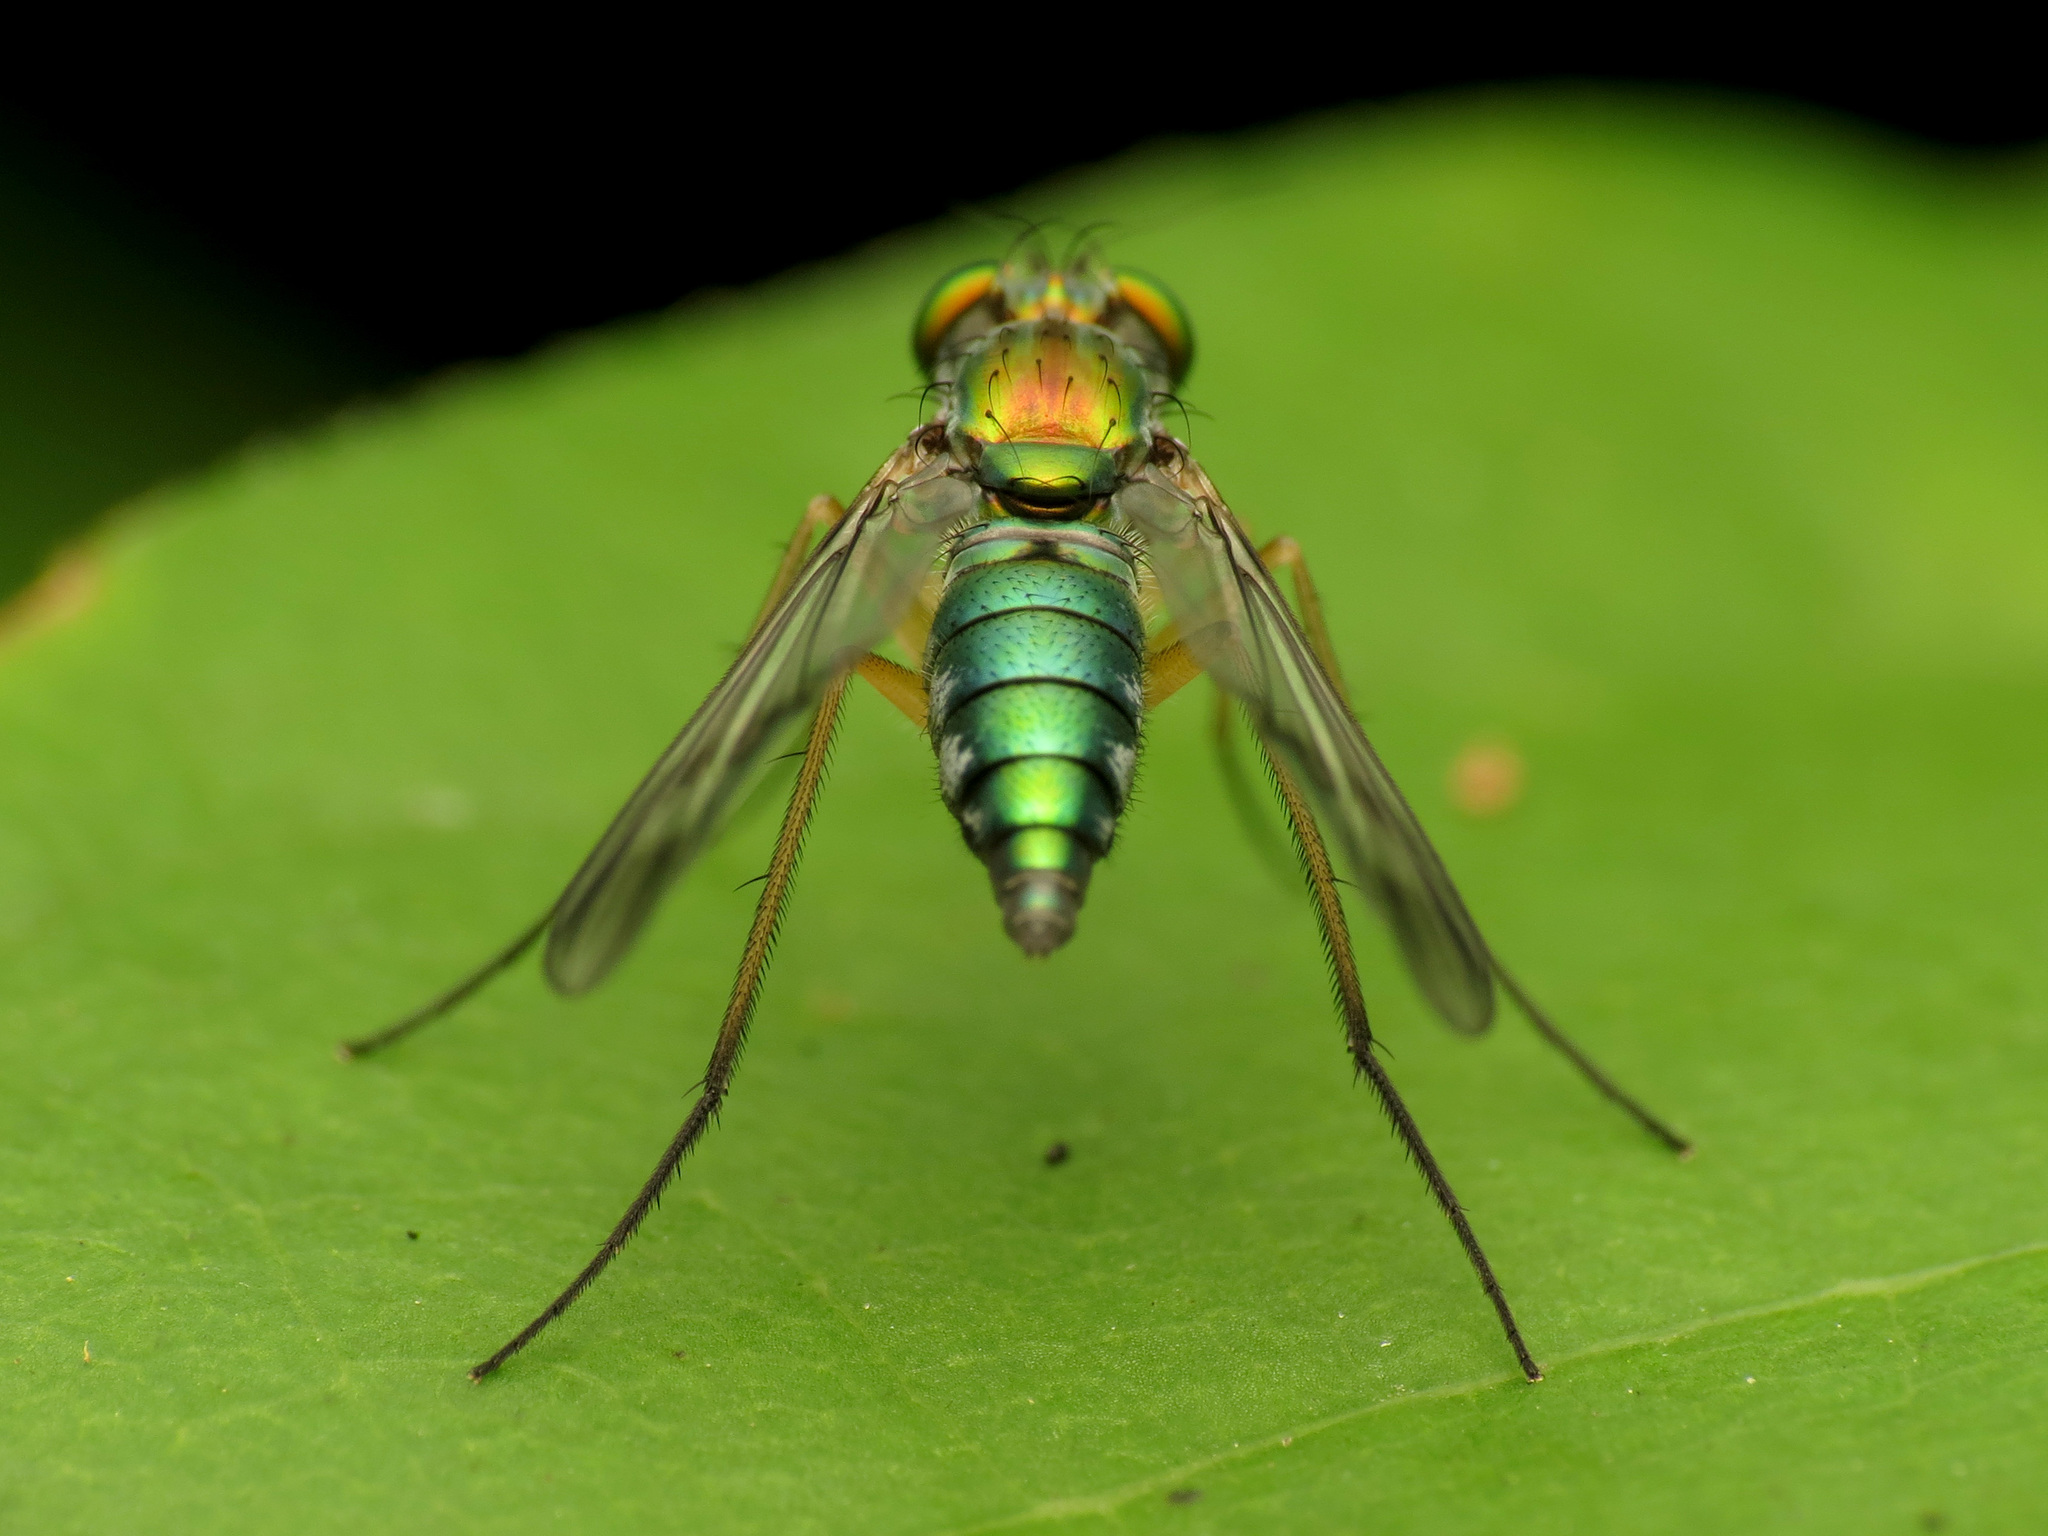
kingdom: Animalia
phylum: Arthropoda
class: Insecta
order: Diptera
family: Dolichopodidae
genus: Condylostylus
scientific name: Condylostylus
